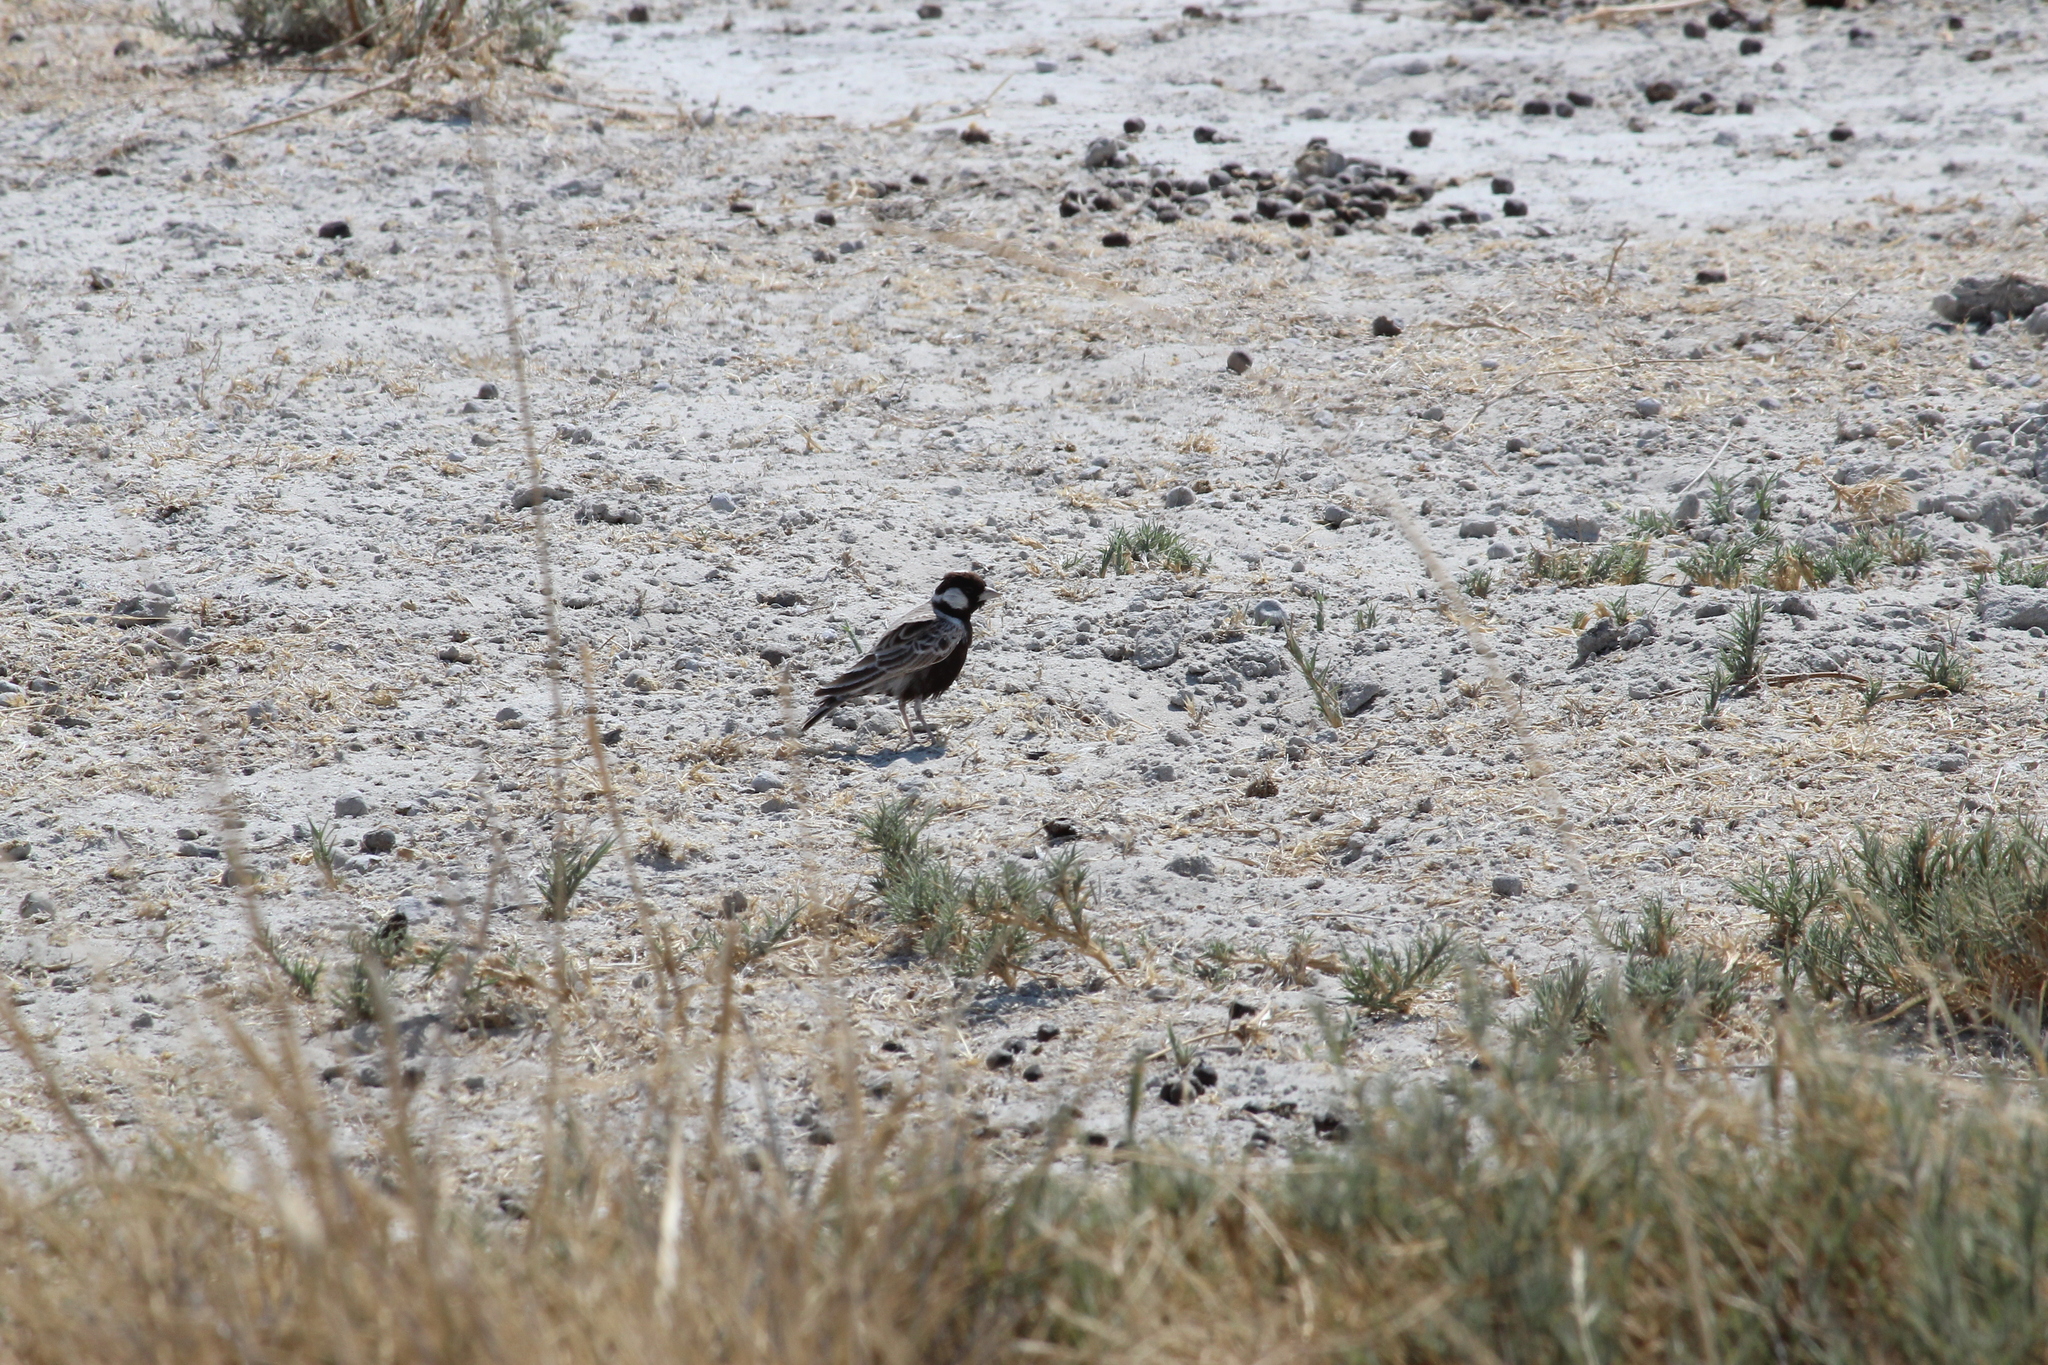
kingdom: Animalia
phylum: Chordata
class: Aves
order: Passeriformes
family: Alaudidae
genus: Eremopterix
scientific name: Eremopterix verticalis
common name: Grey-backed sparrow-lark
